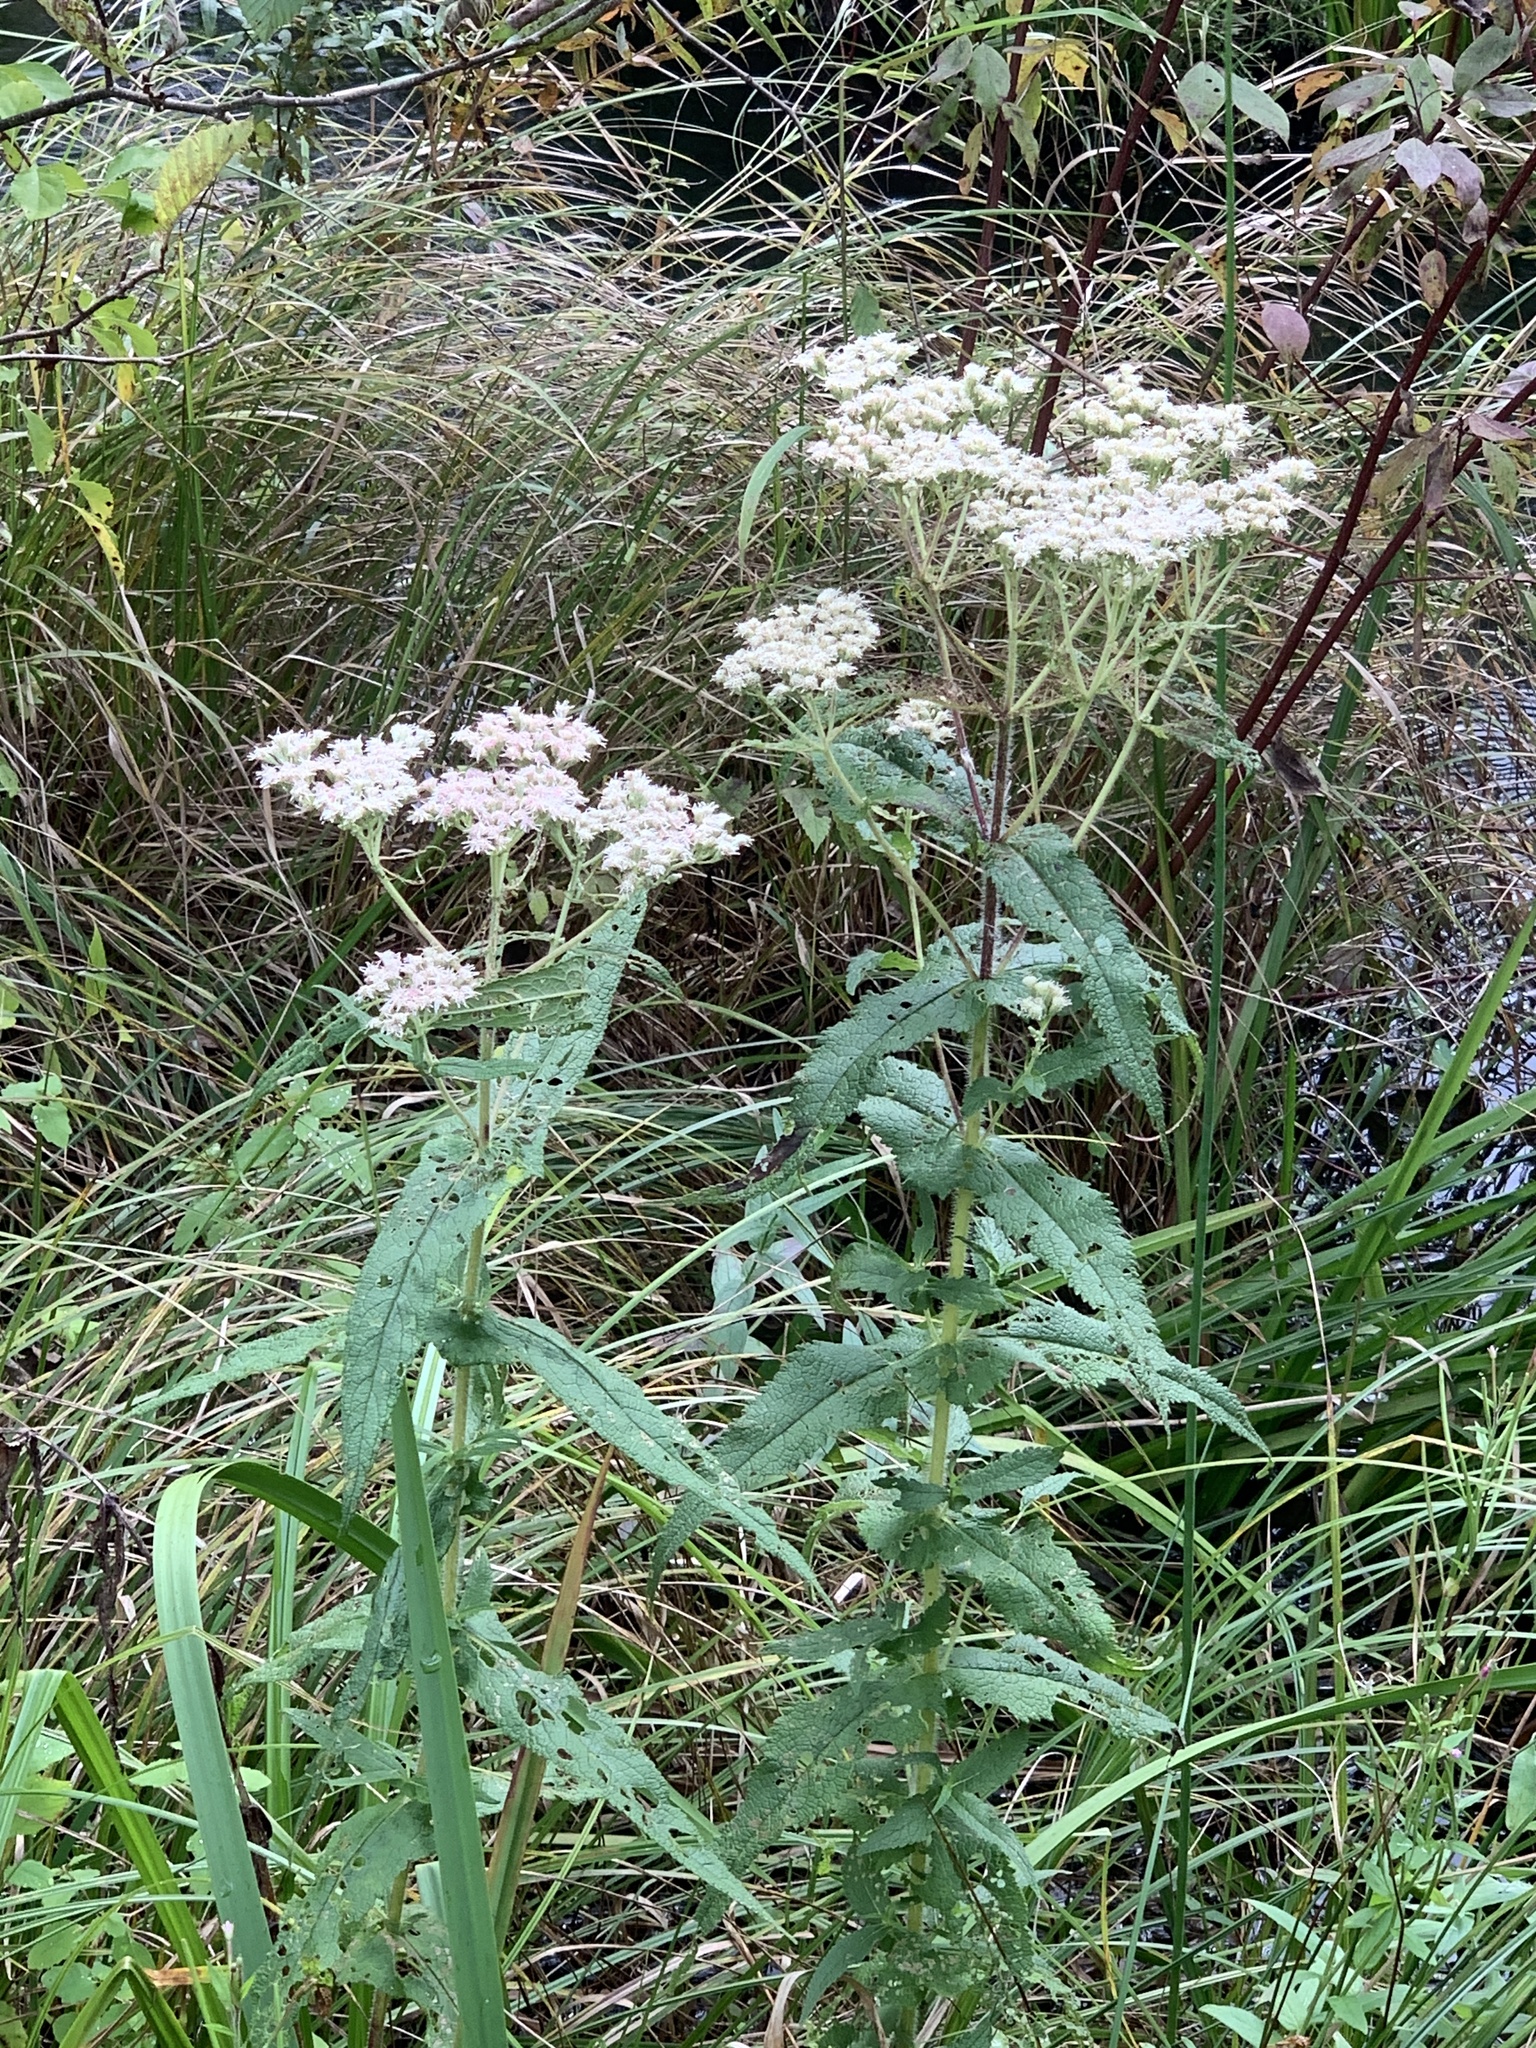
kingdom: Plantae
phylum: Tracheophyta
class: Magnoliopsida
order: Asterales
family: Asteraceae
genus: Eupatorium
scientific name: Eupatorium perfoliatum
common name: Boneset
